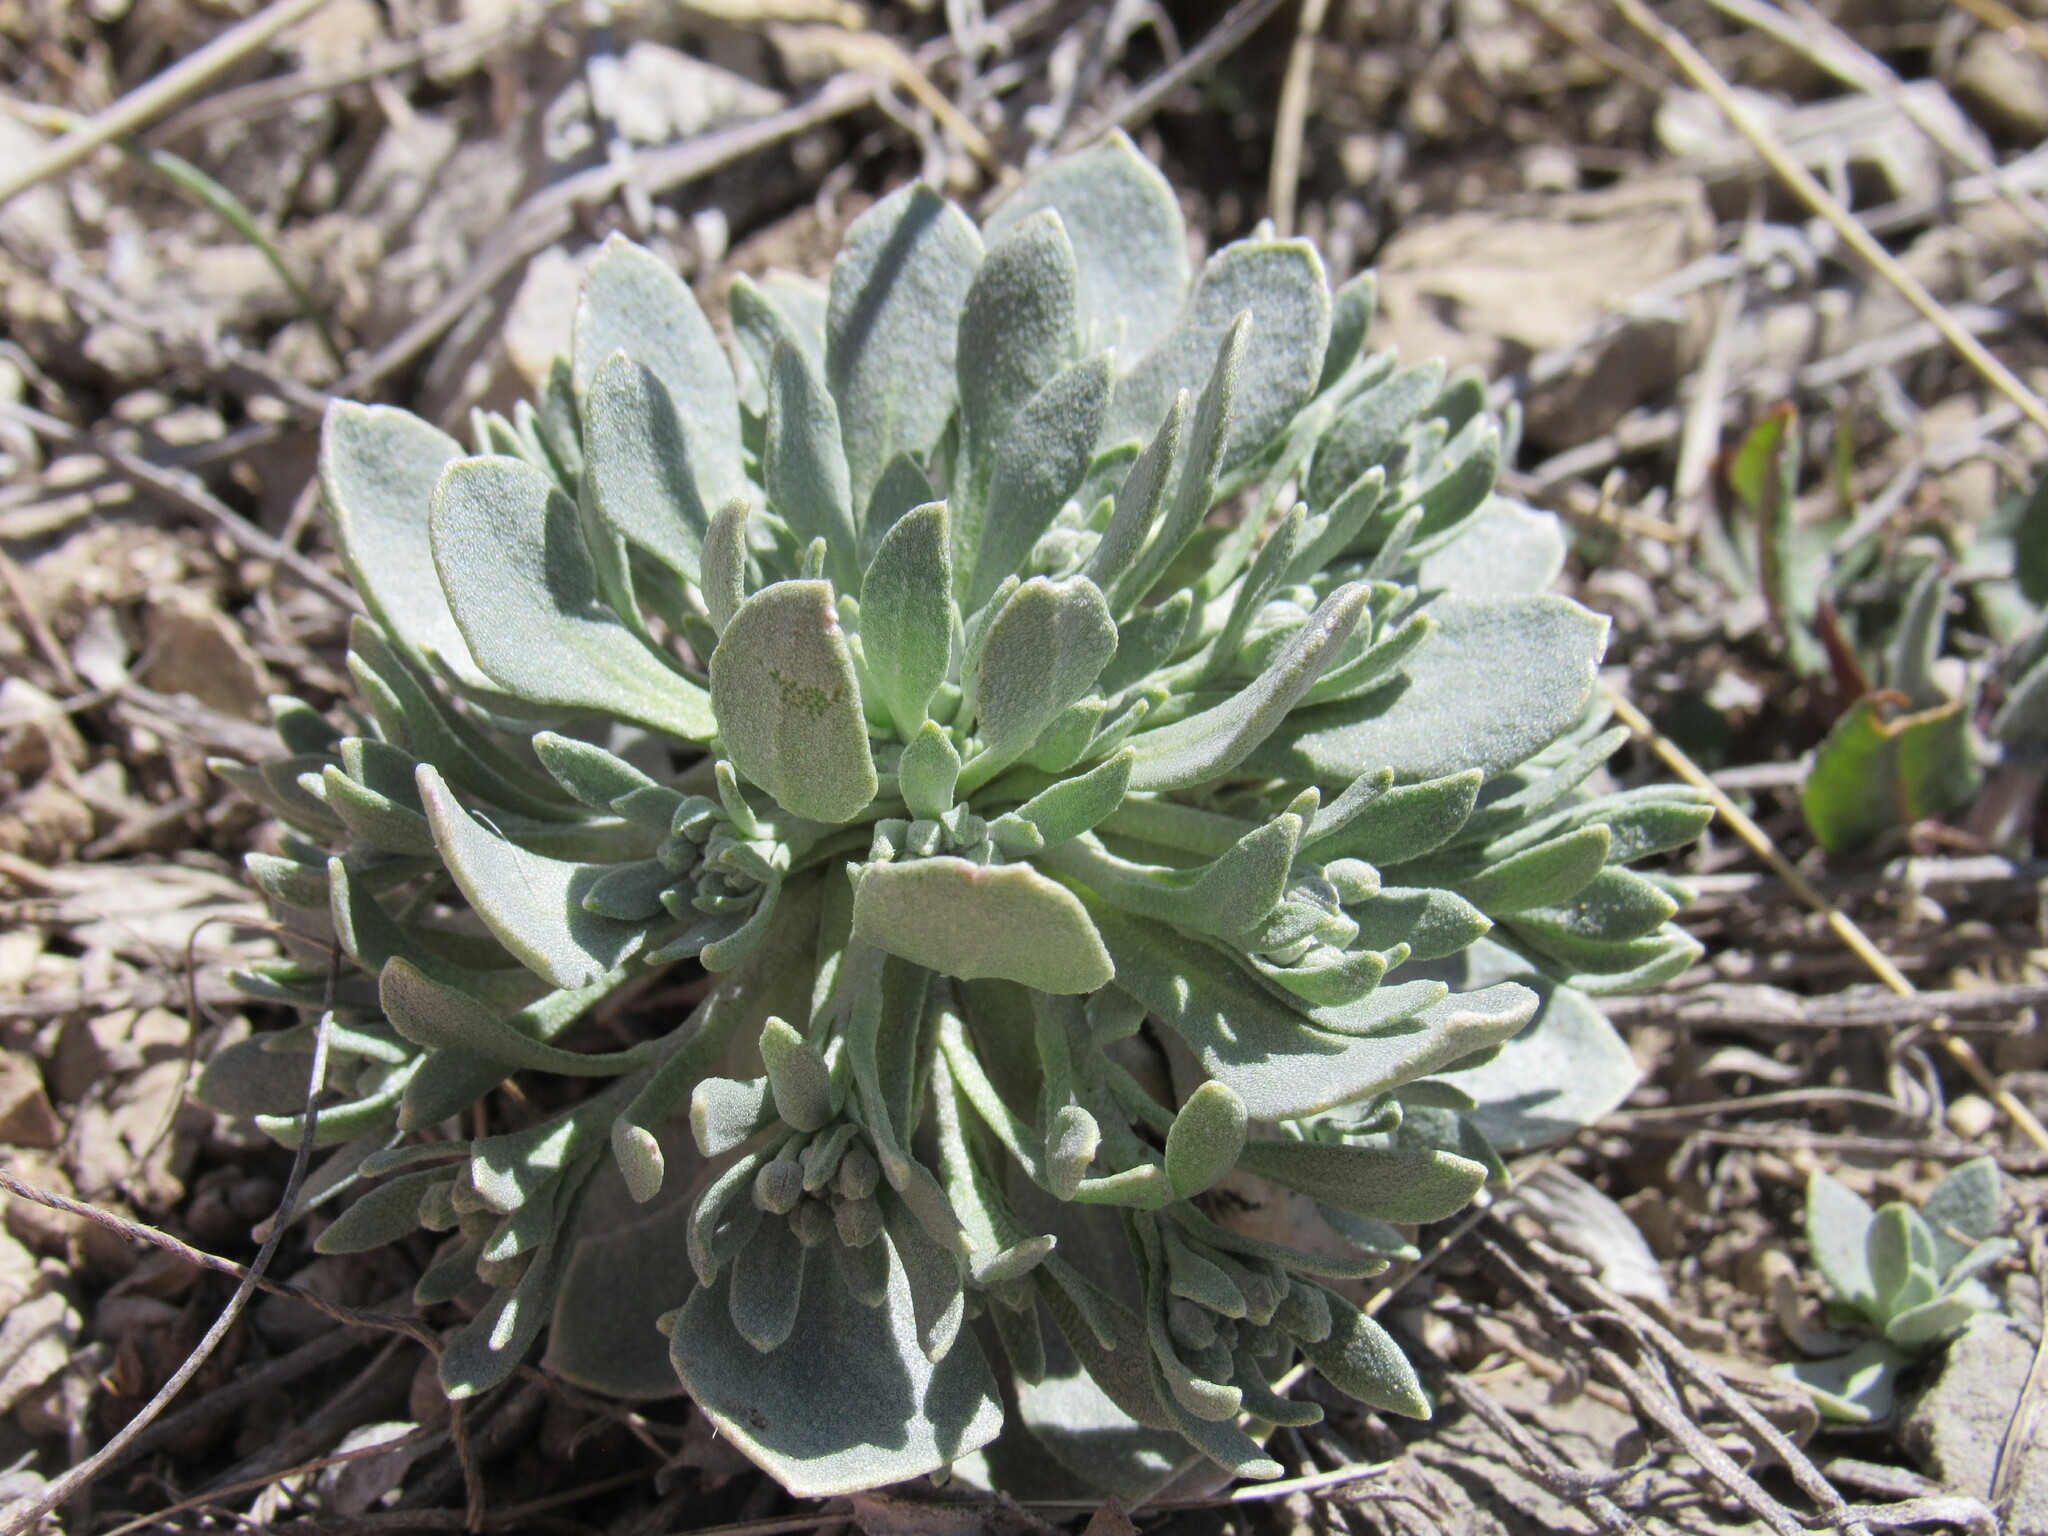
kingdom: Plantae
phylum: Tracheophyta
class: Magnoliopsida
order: Brassicales
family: Brassicaceae
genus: Physaria
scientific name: Physaria bellii
